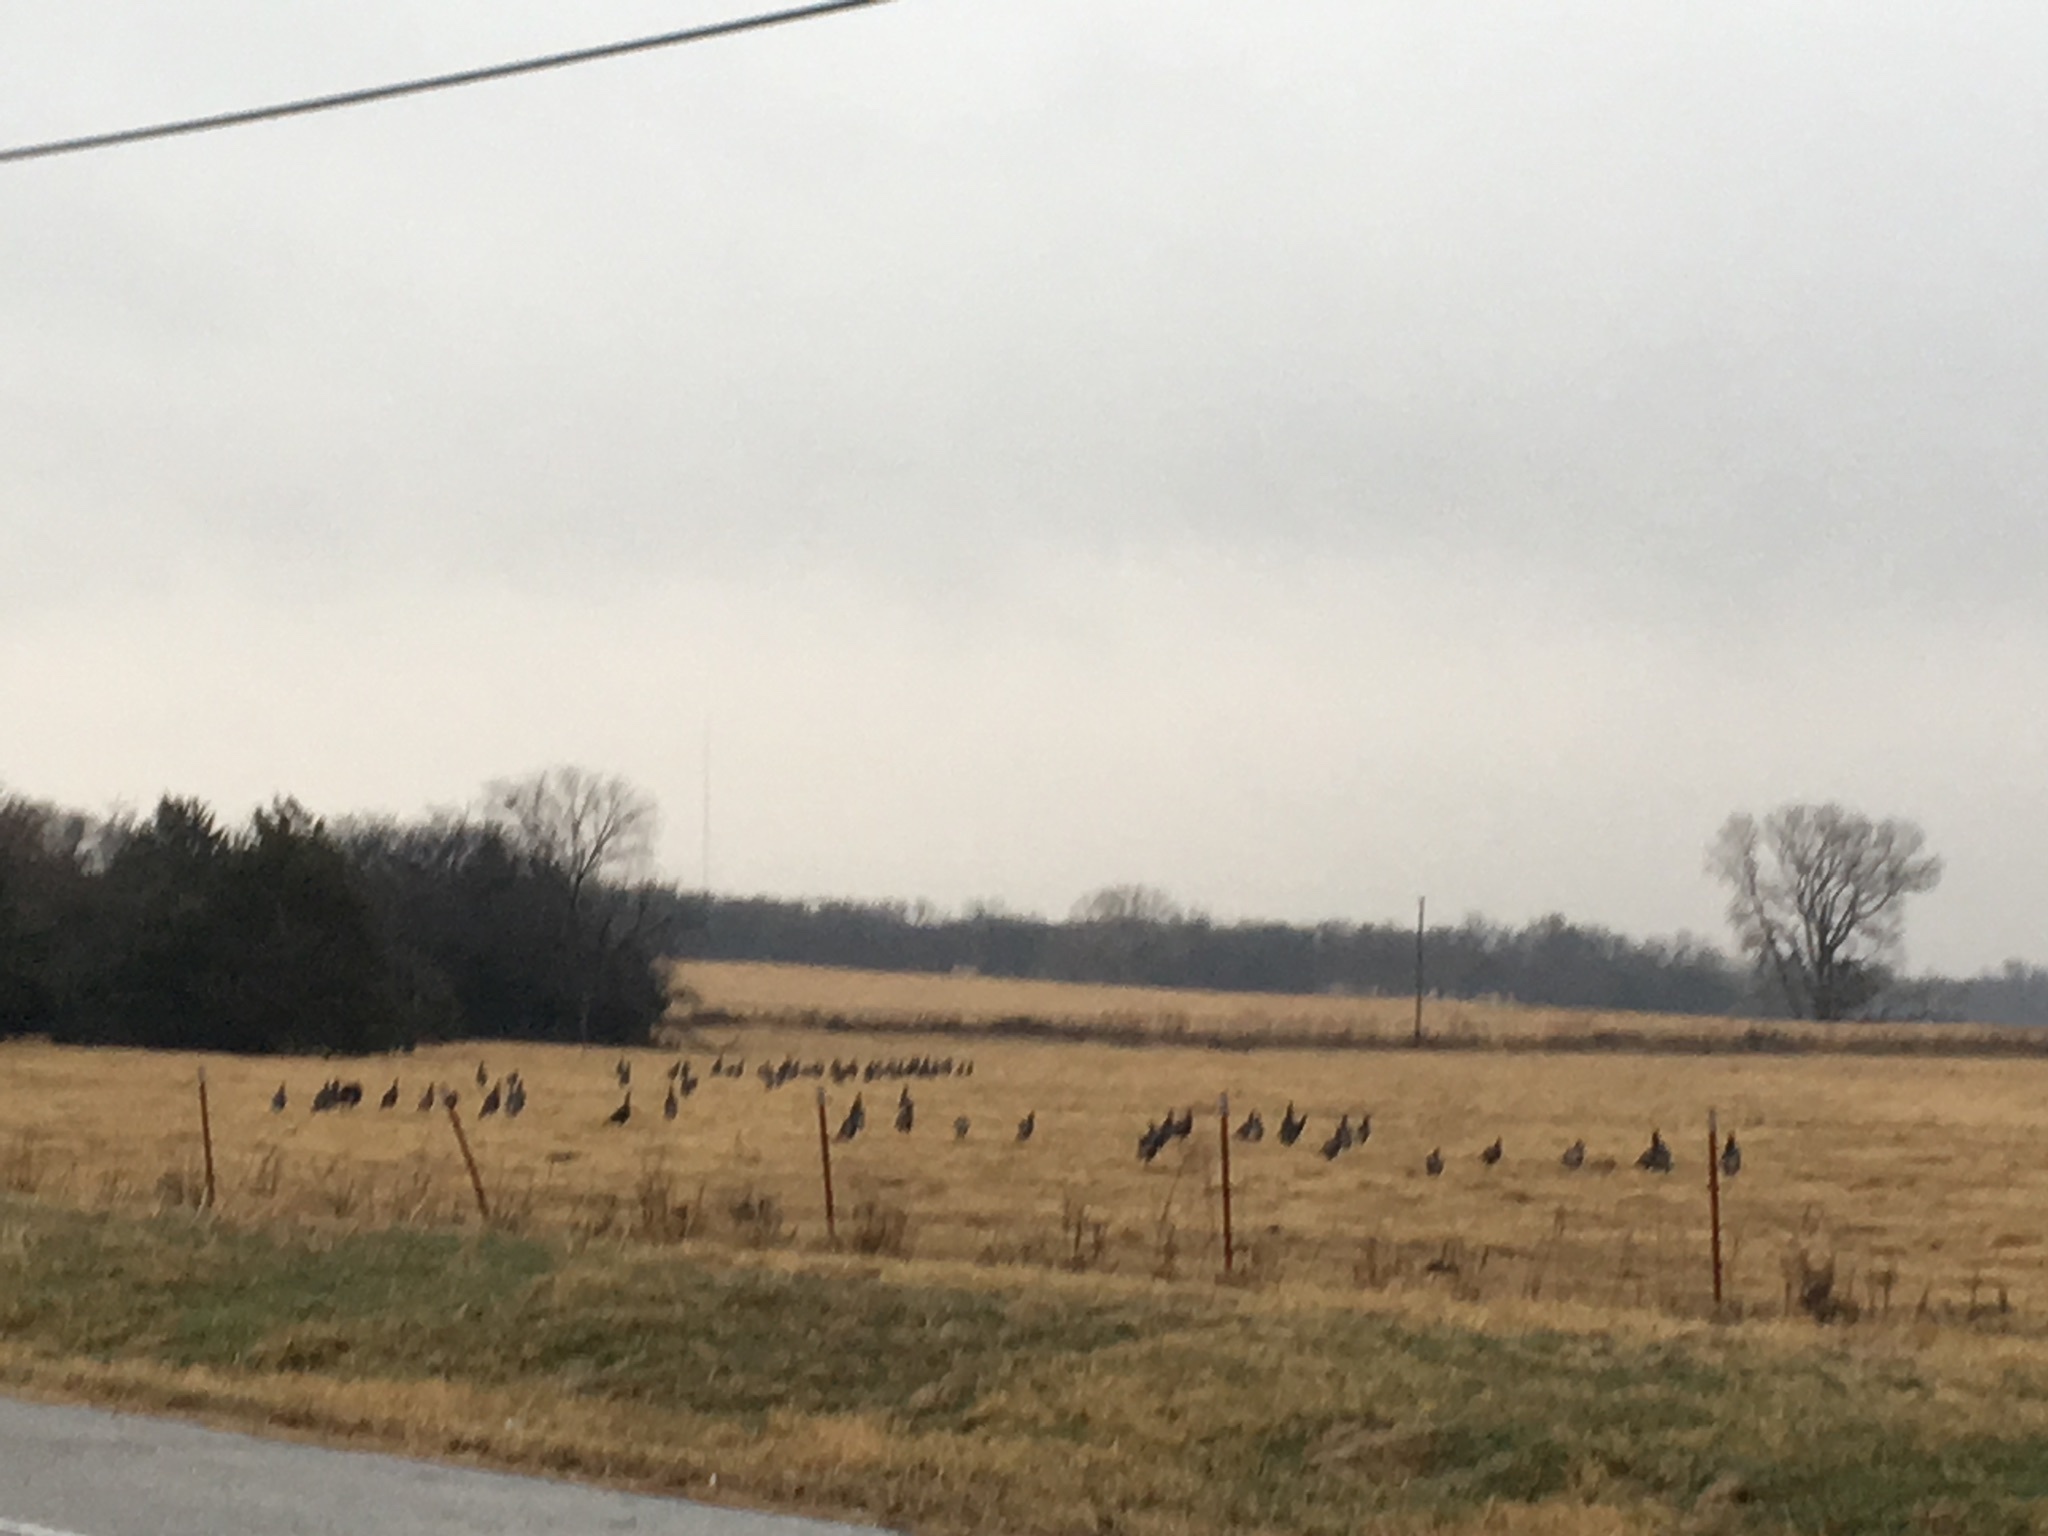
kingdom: Animalia
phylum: Chordata
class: Aves
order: Galliformes
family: Phasianidae
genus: Meleagris
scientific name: Meleagris gallopavo
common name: Wild turkey
